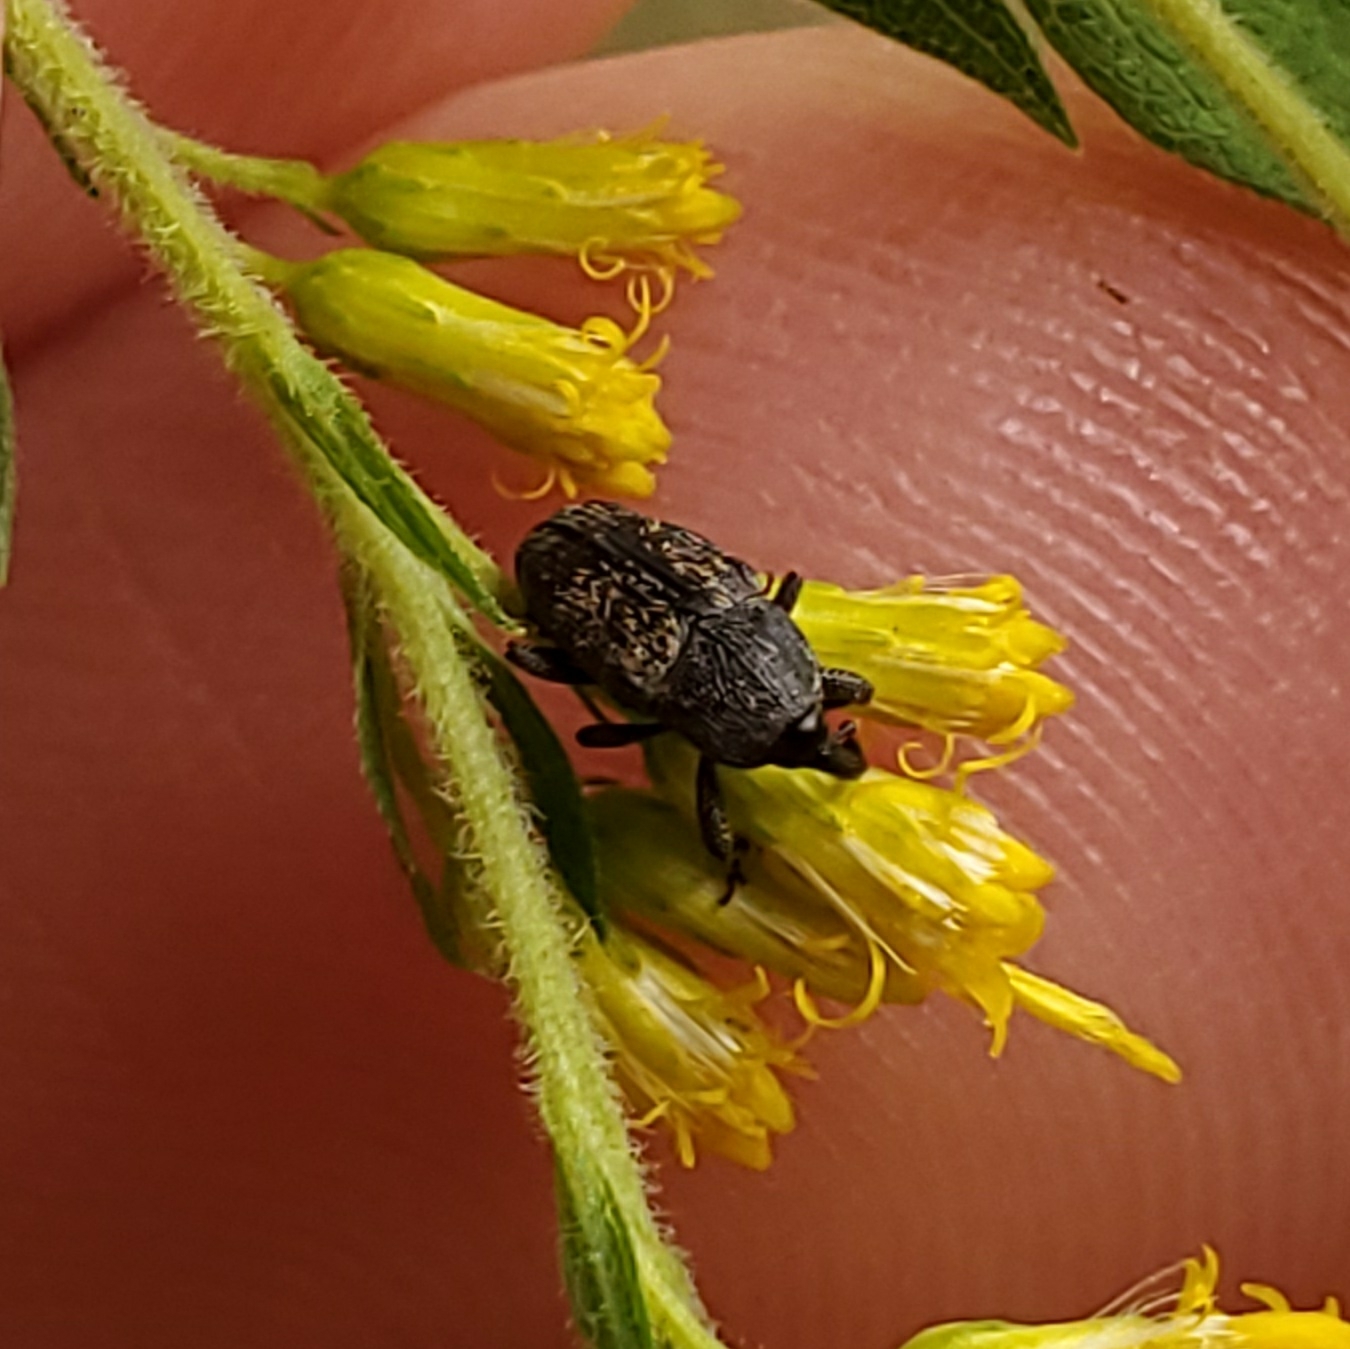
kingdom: Animalia
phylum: Arthropoda
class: Insecta
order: Coleoptera
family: Curculionidae
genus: Glyptobaris
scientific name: Glyptobaris lecontei
